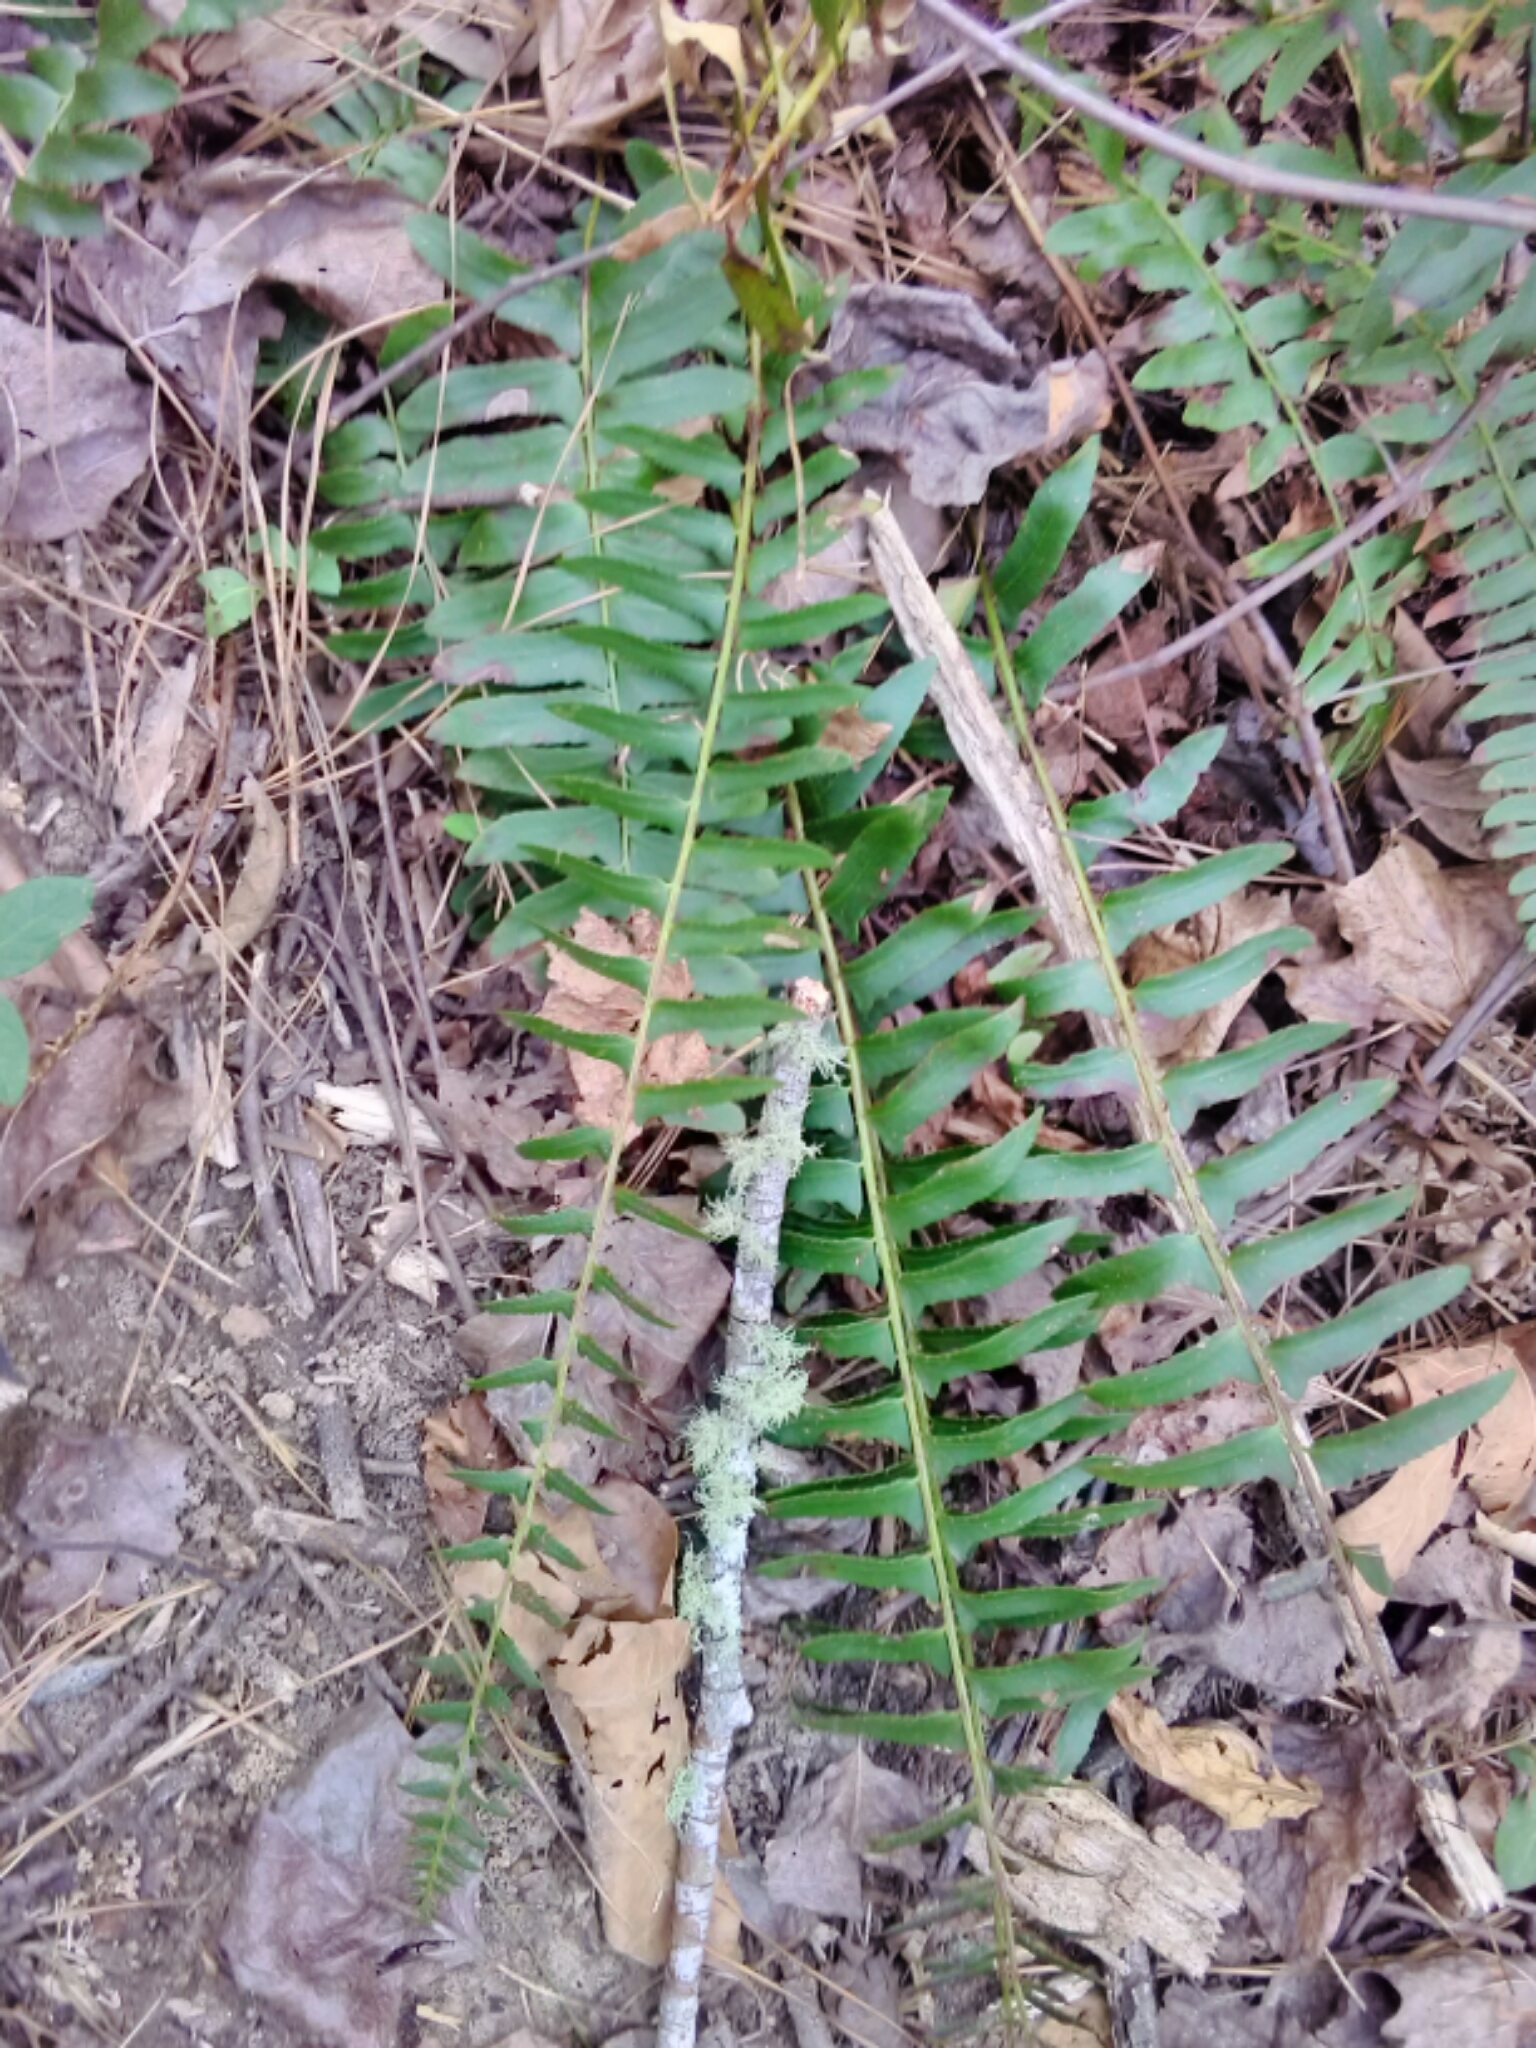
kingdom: Plantae
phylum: Tracheophyta
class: Polypodiopsida
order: Polypodiales
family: Dryopteridaceae
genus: Polystichum
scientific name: Polystichum acrostichoides
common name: Christmas fern
